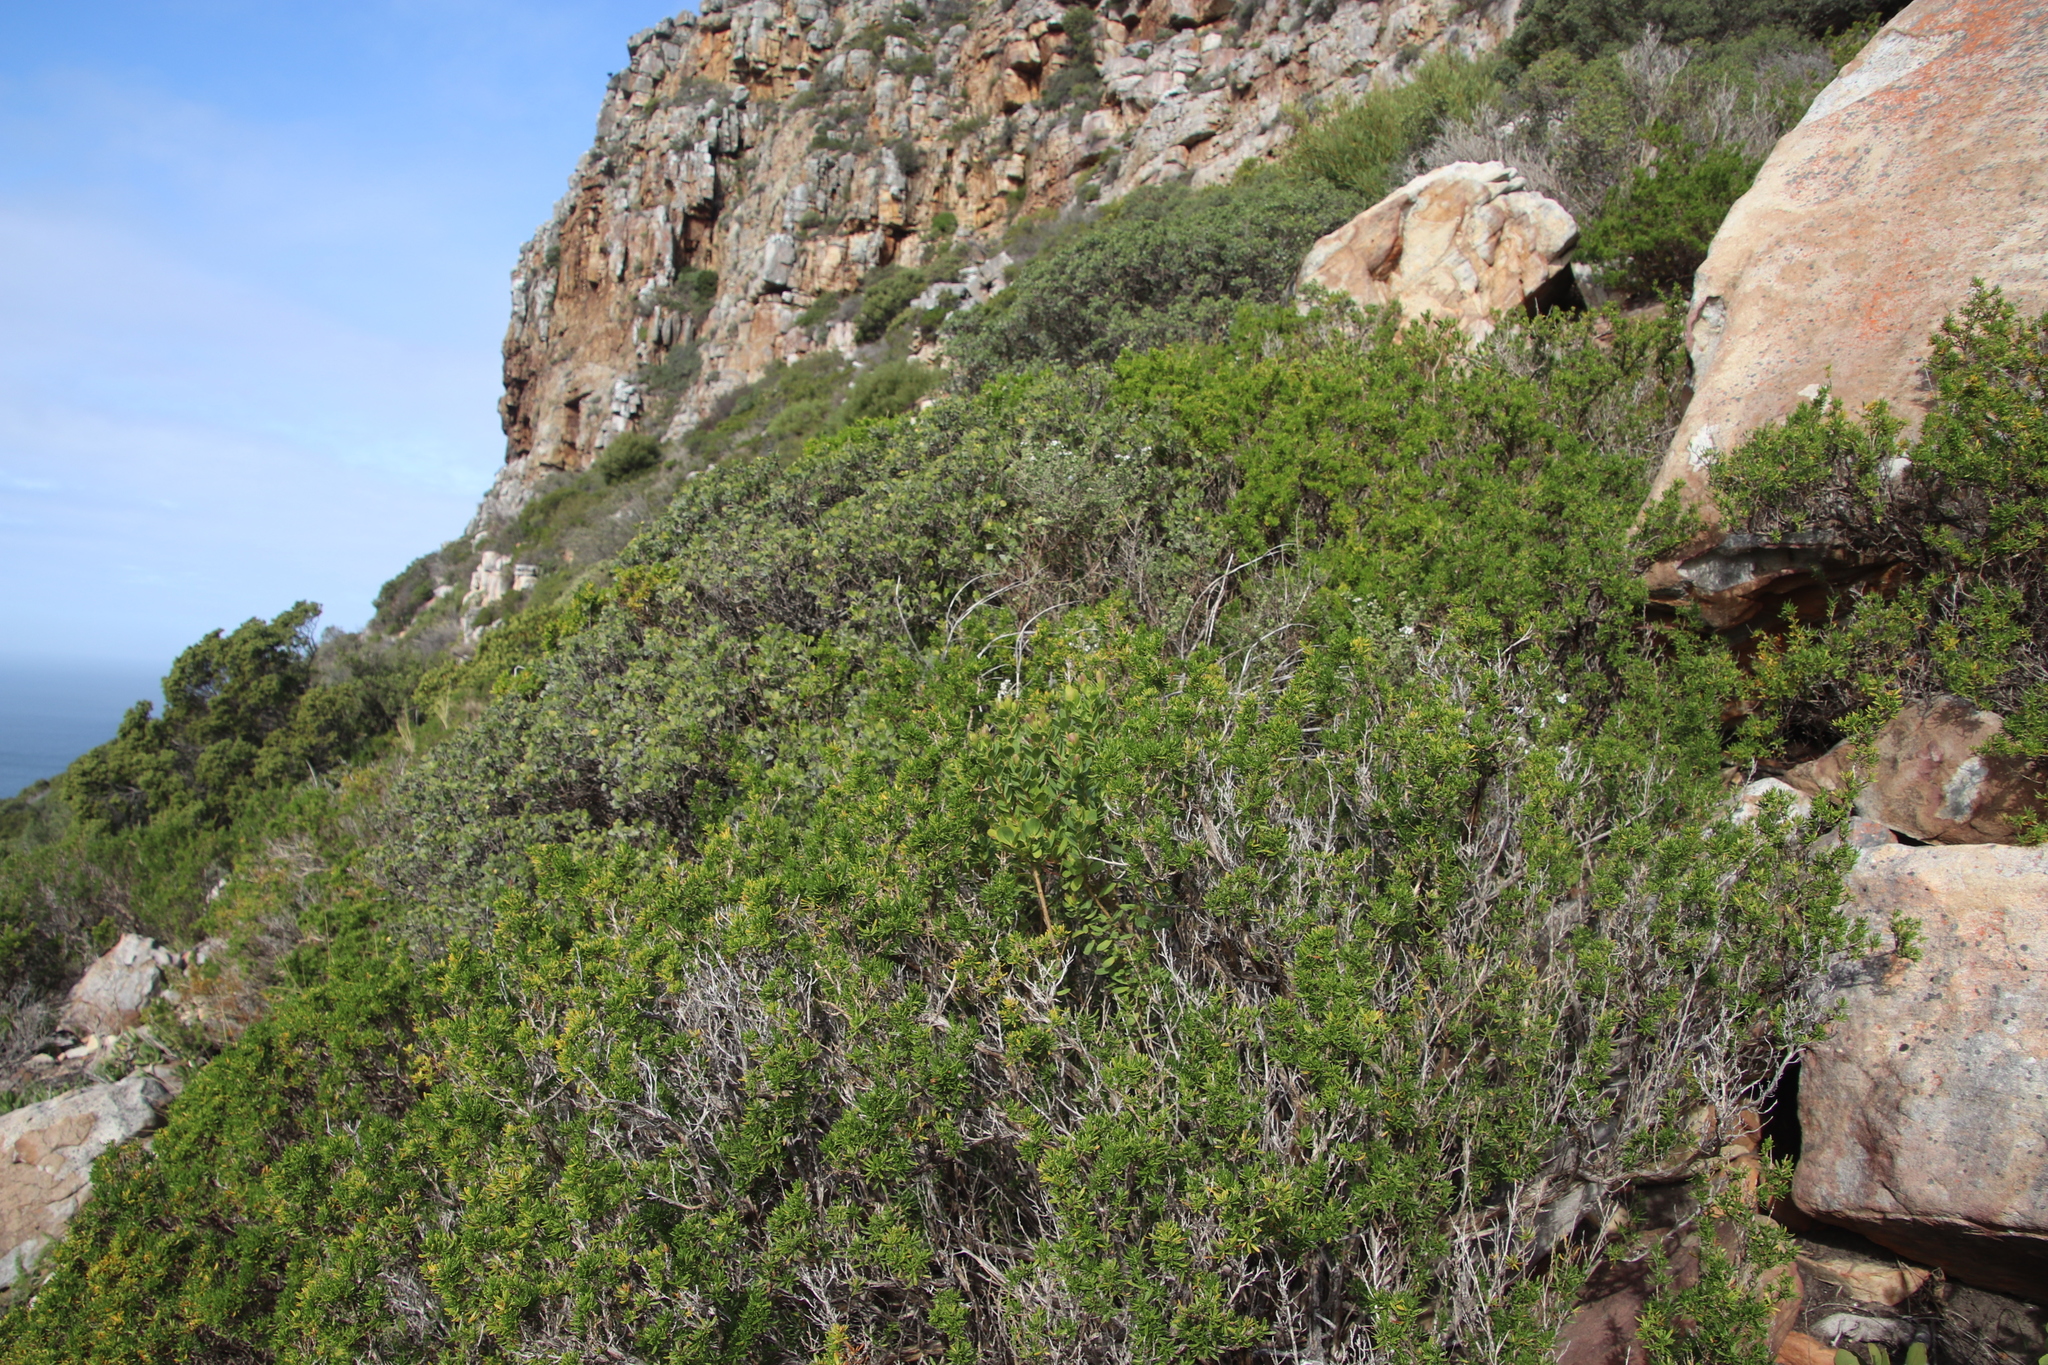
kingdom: Plantae
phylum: Tracheophyta
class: Magnoliopsida
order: Asterales
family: Asteraceae
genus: Felicia
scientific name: Felicia fruticosa
